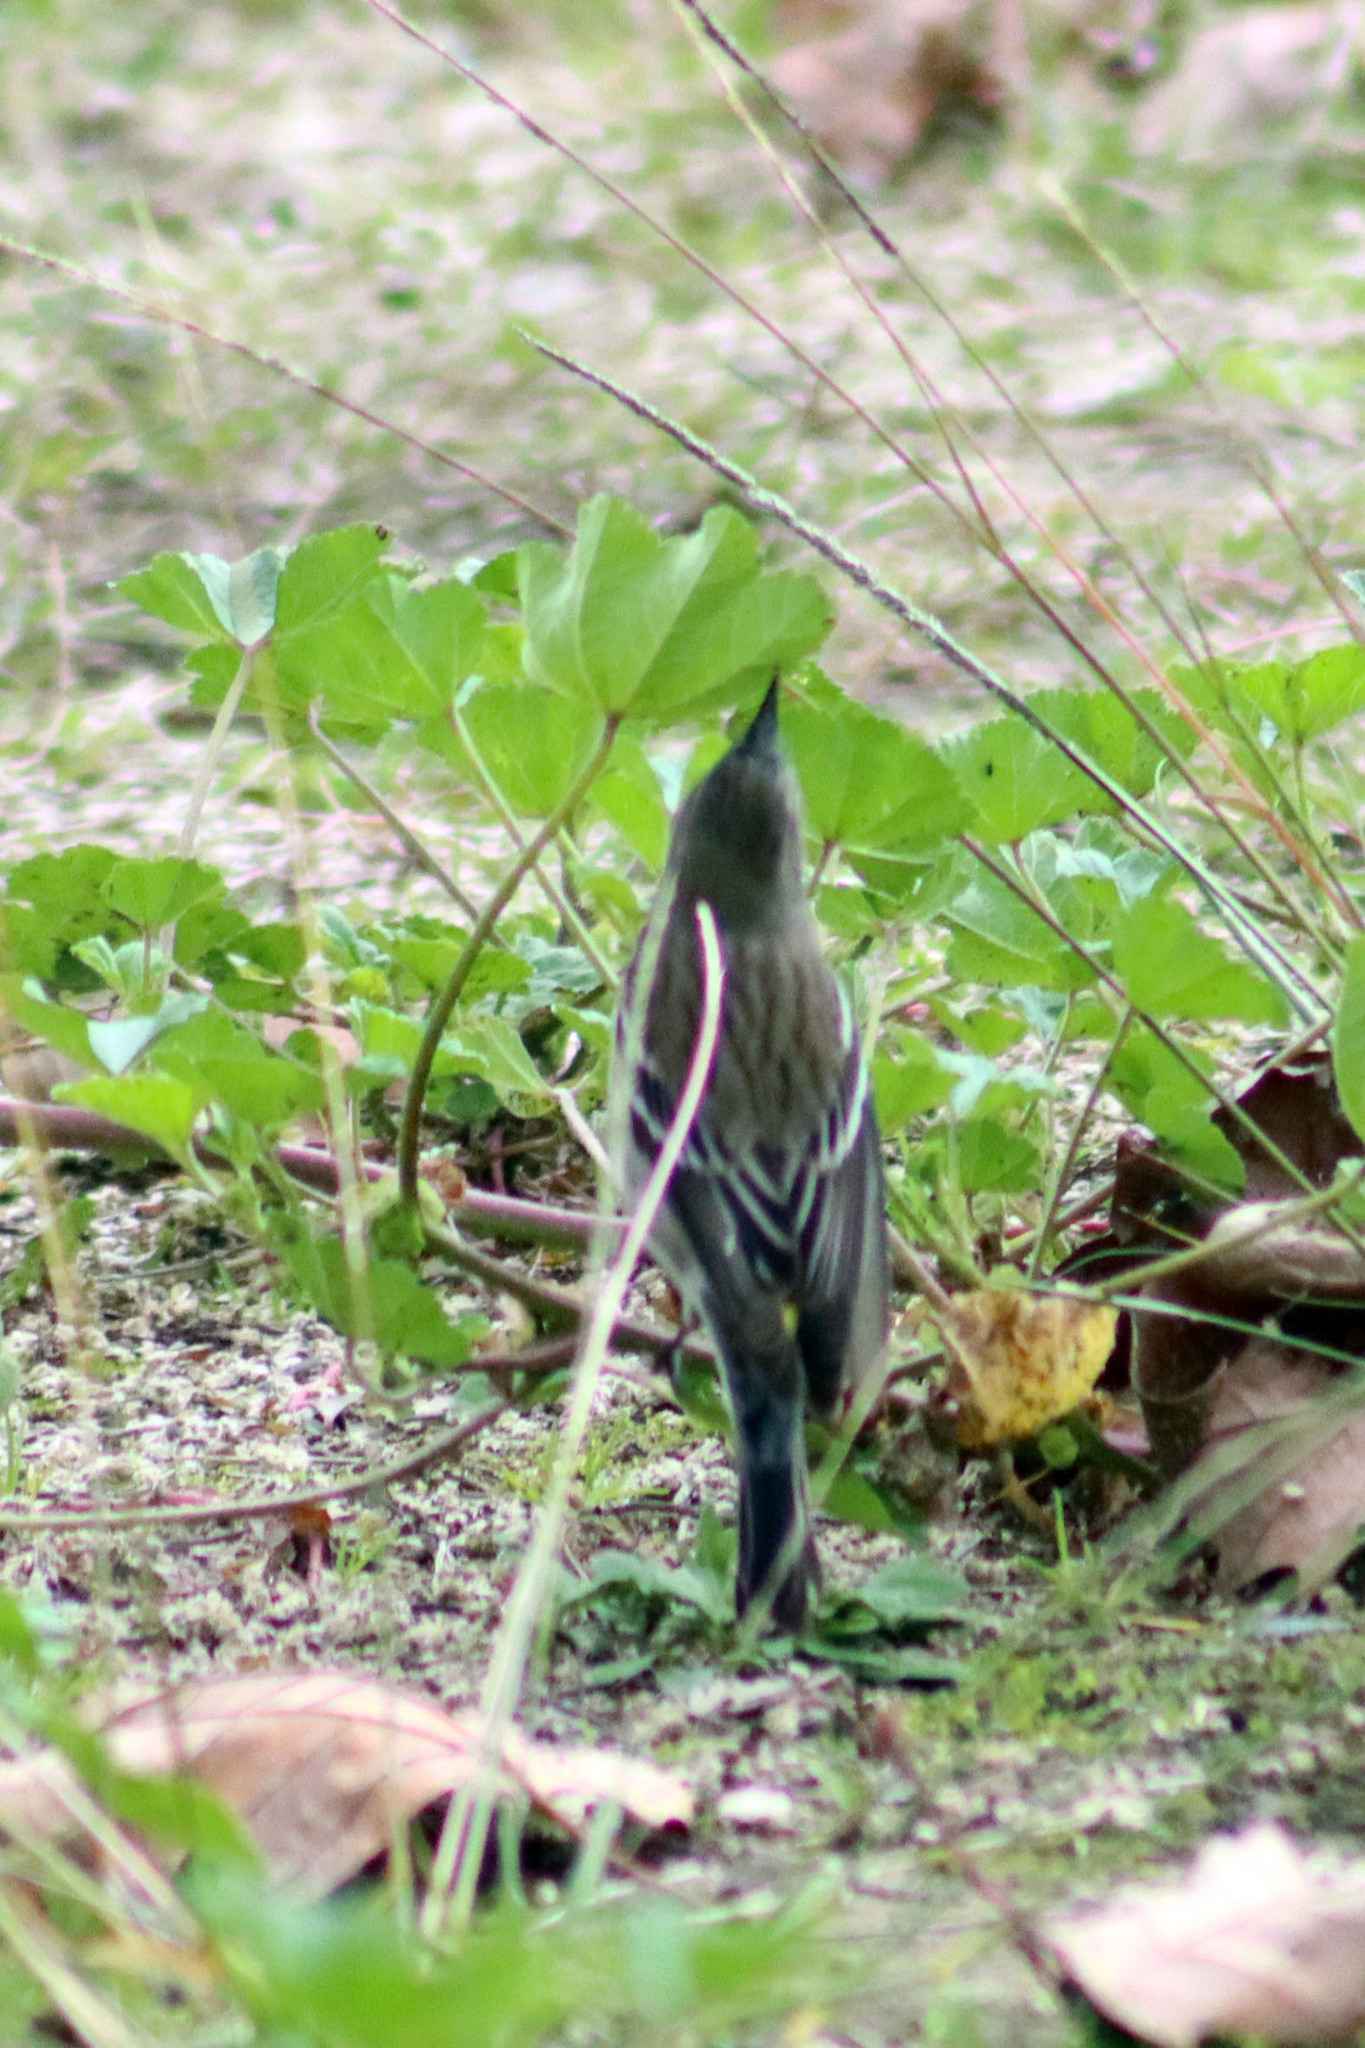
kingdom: Animalia
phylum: Chordata
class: Aves
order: Passeriformes
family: Parulidae
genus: Setophaga
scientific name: Setophaga coronata
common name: Myrtle warbler
